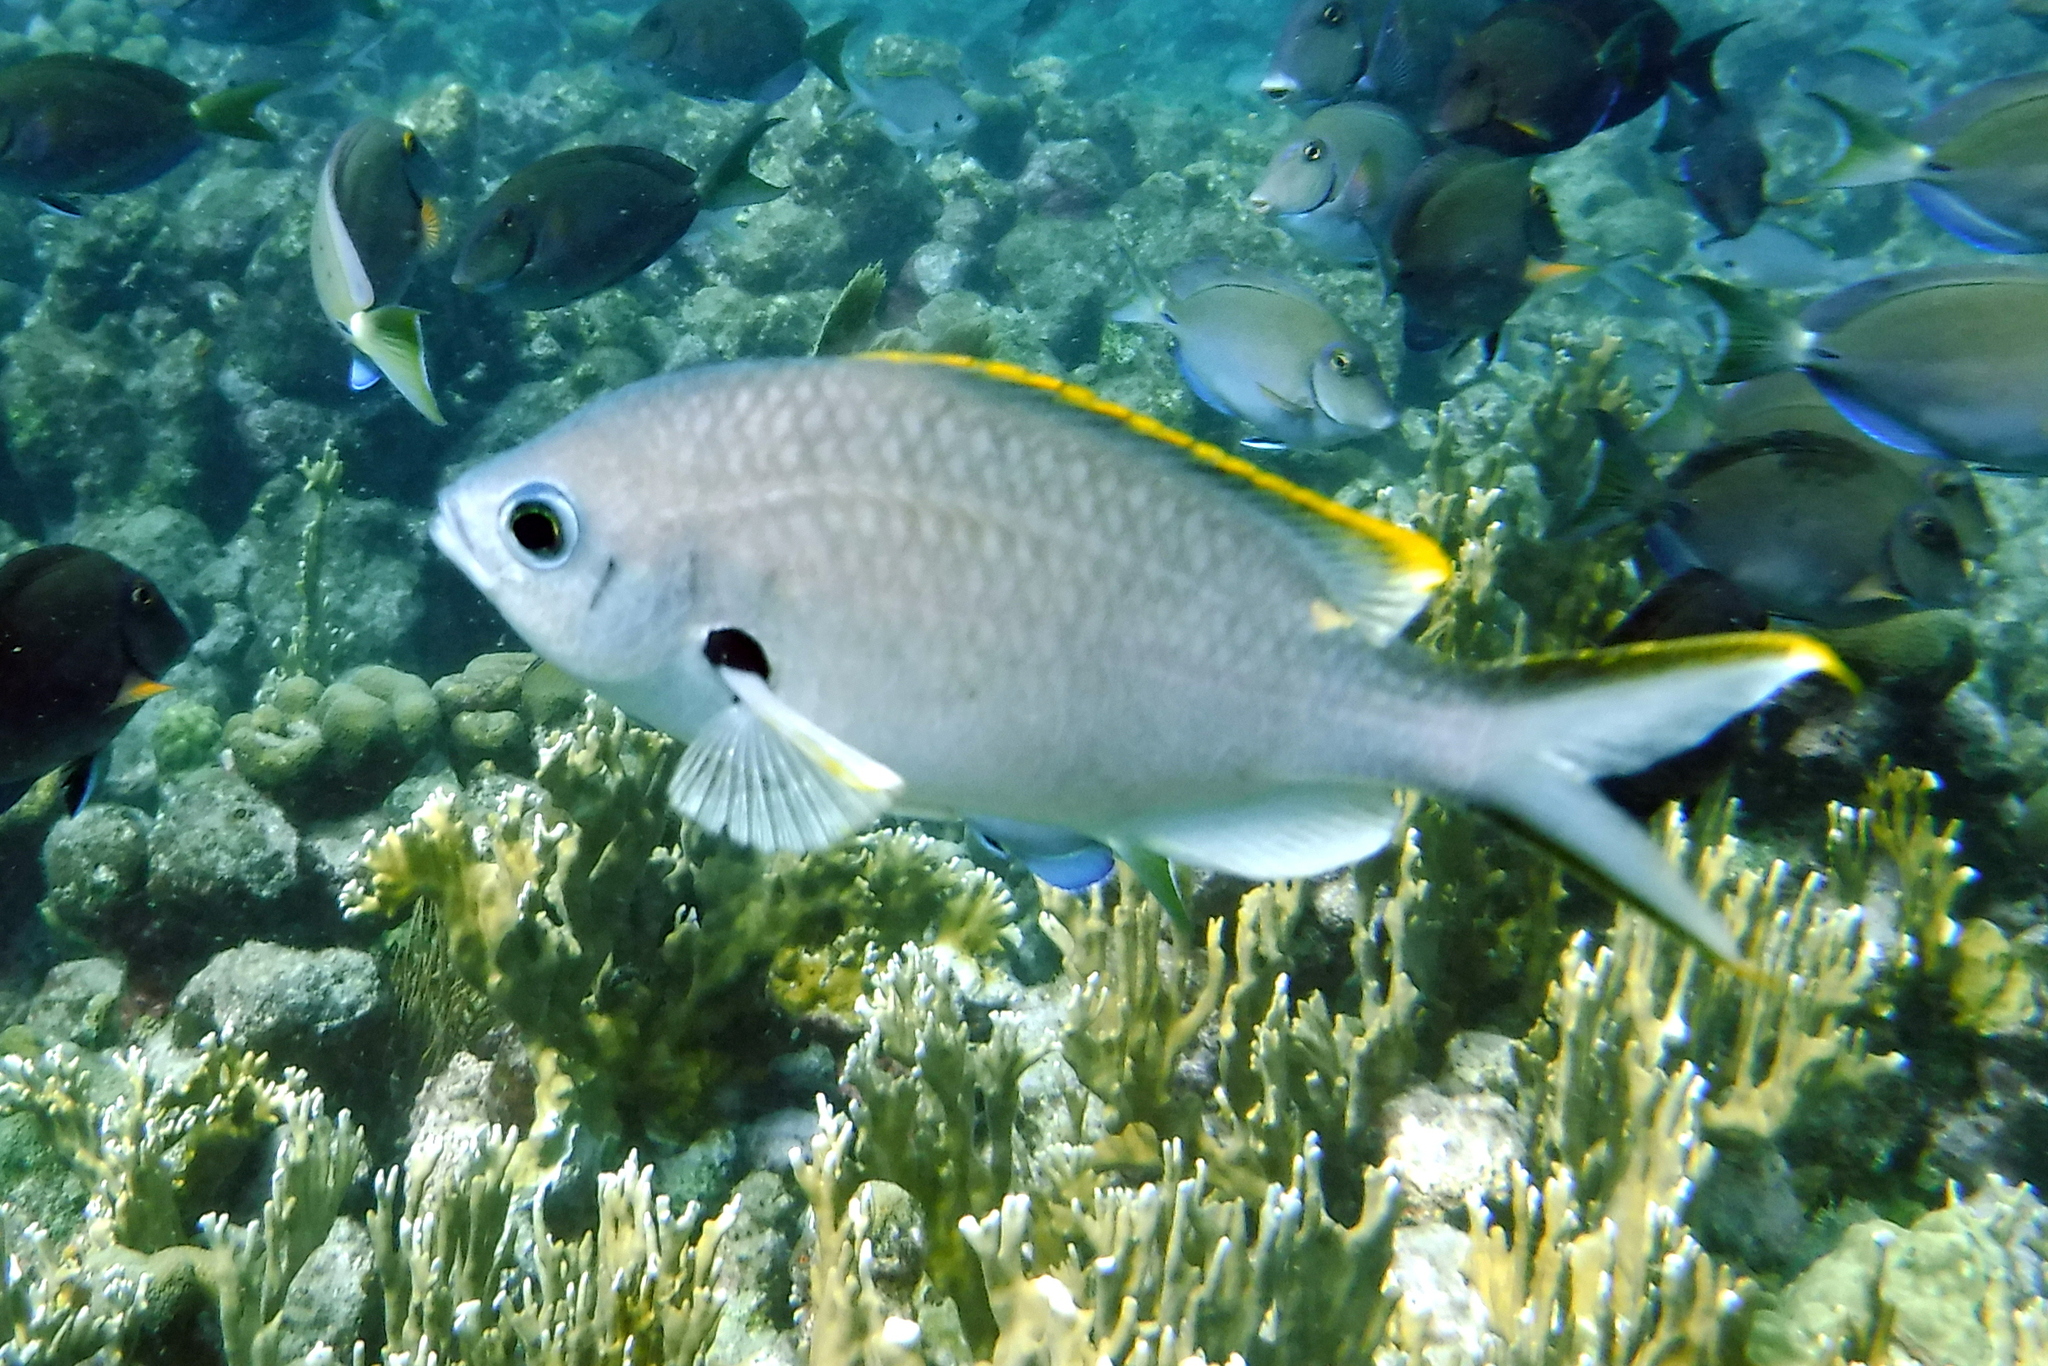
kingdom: Animalia
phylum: Chordata
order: Perciformes
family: Pomacentridae
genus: Chromis
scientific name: Chromis multilineata
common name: Brown chromis
